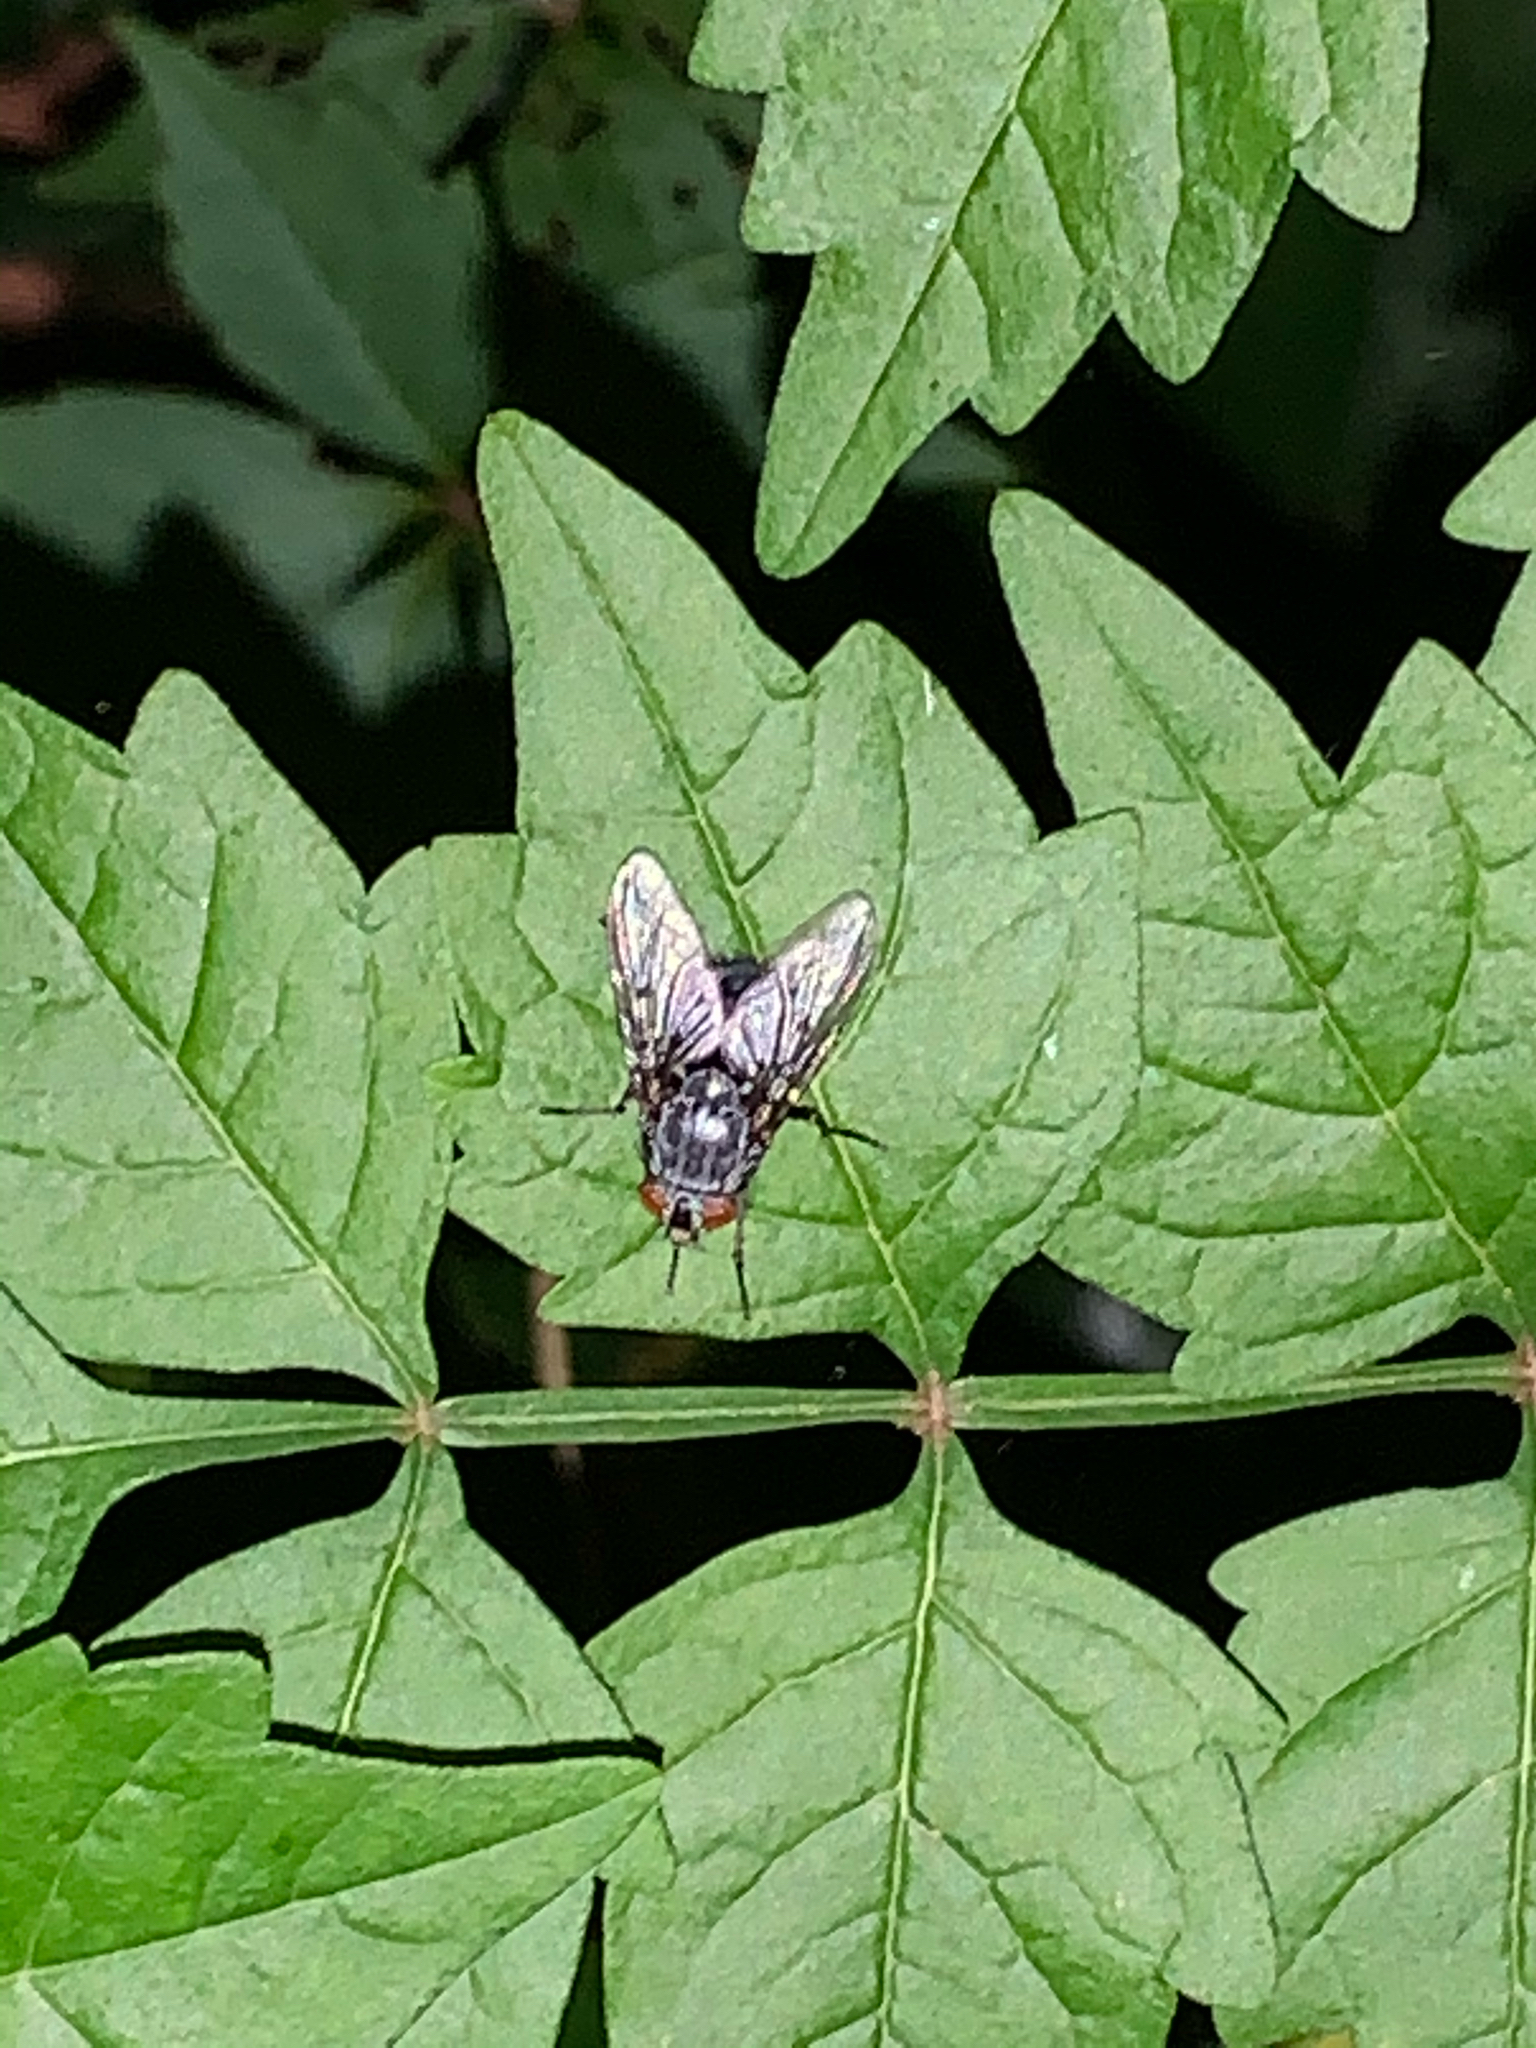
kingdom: Animalia
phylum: Arthropoda
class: Insecta
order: Diptera
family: Calliphoridae
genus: Calliphora
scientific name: Calliphora
